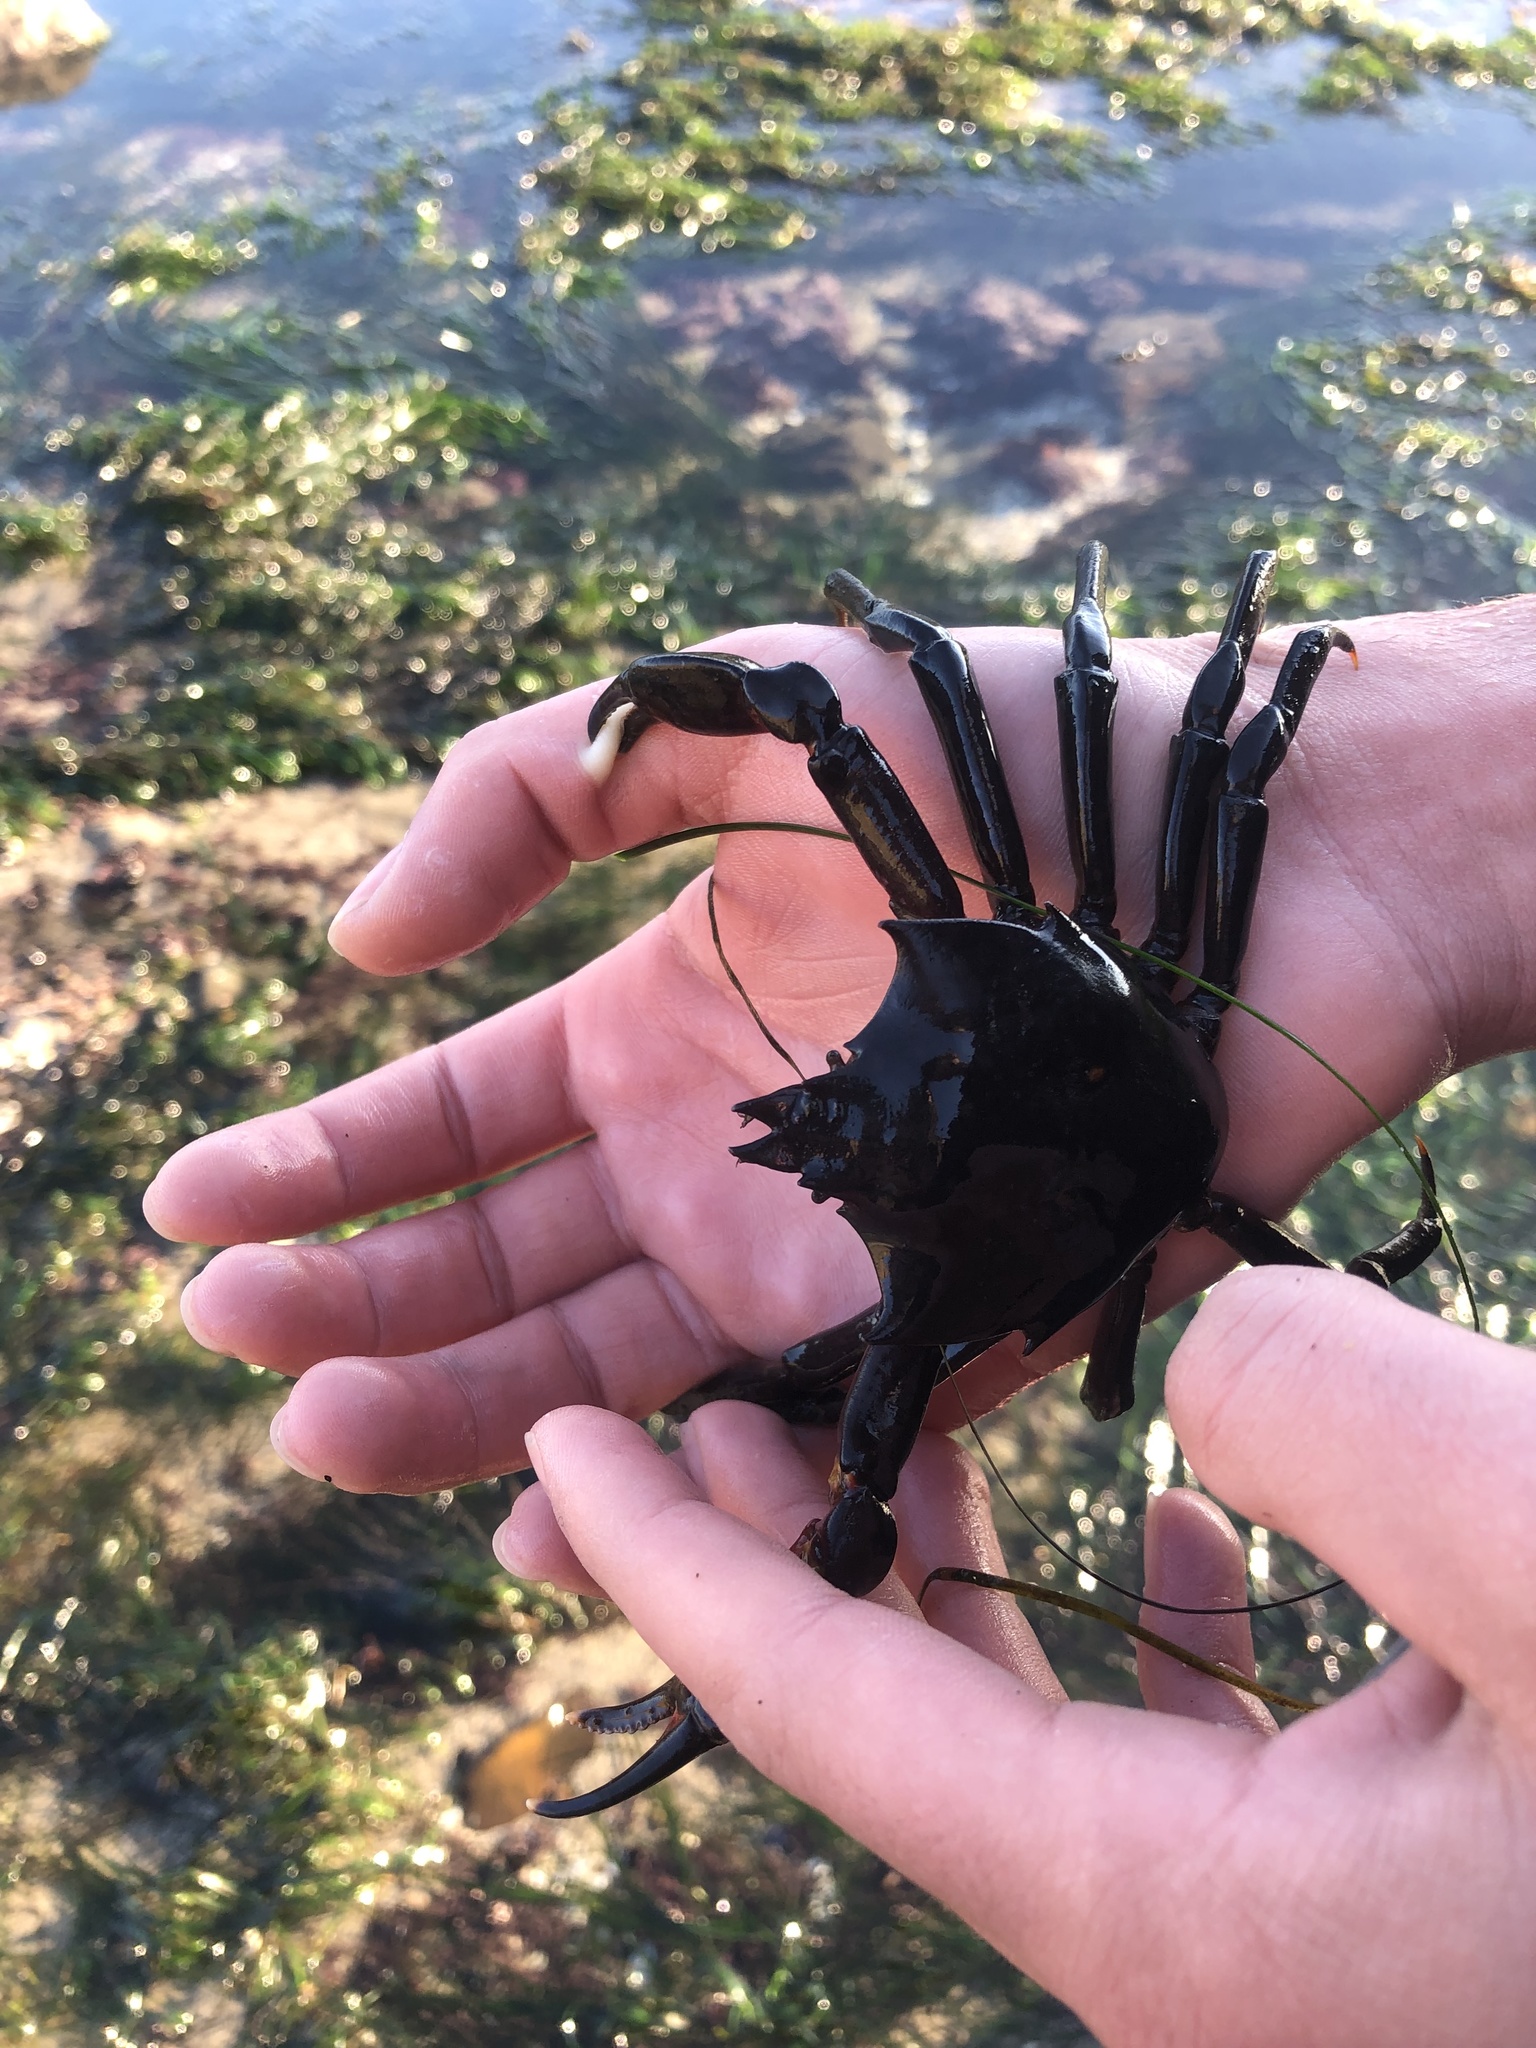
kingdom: Animalia
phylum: Arthropoda
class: Malacostraca
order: Decapoda
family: Epialtidae
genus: Pugettia
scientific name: Pugettia producta
